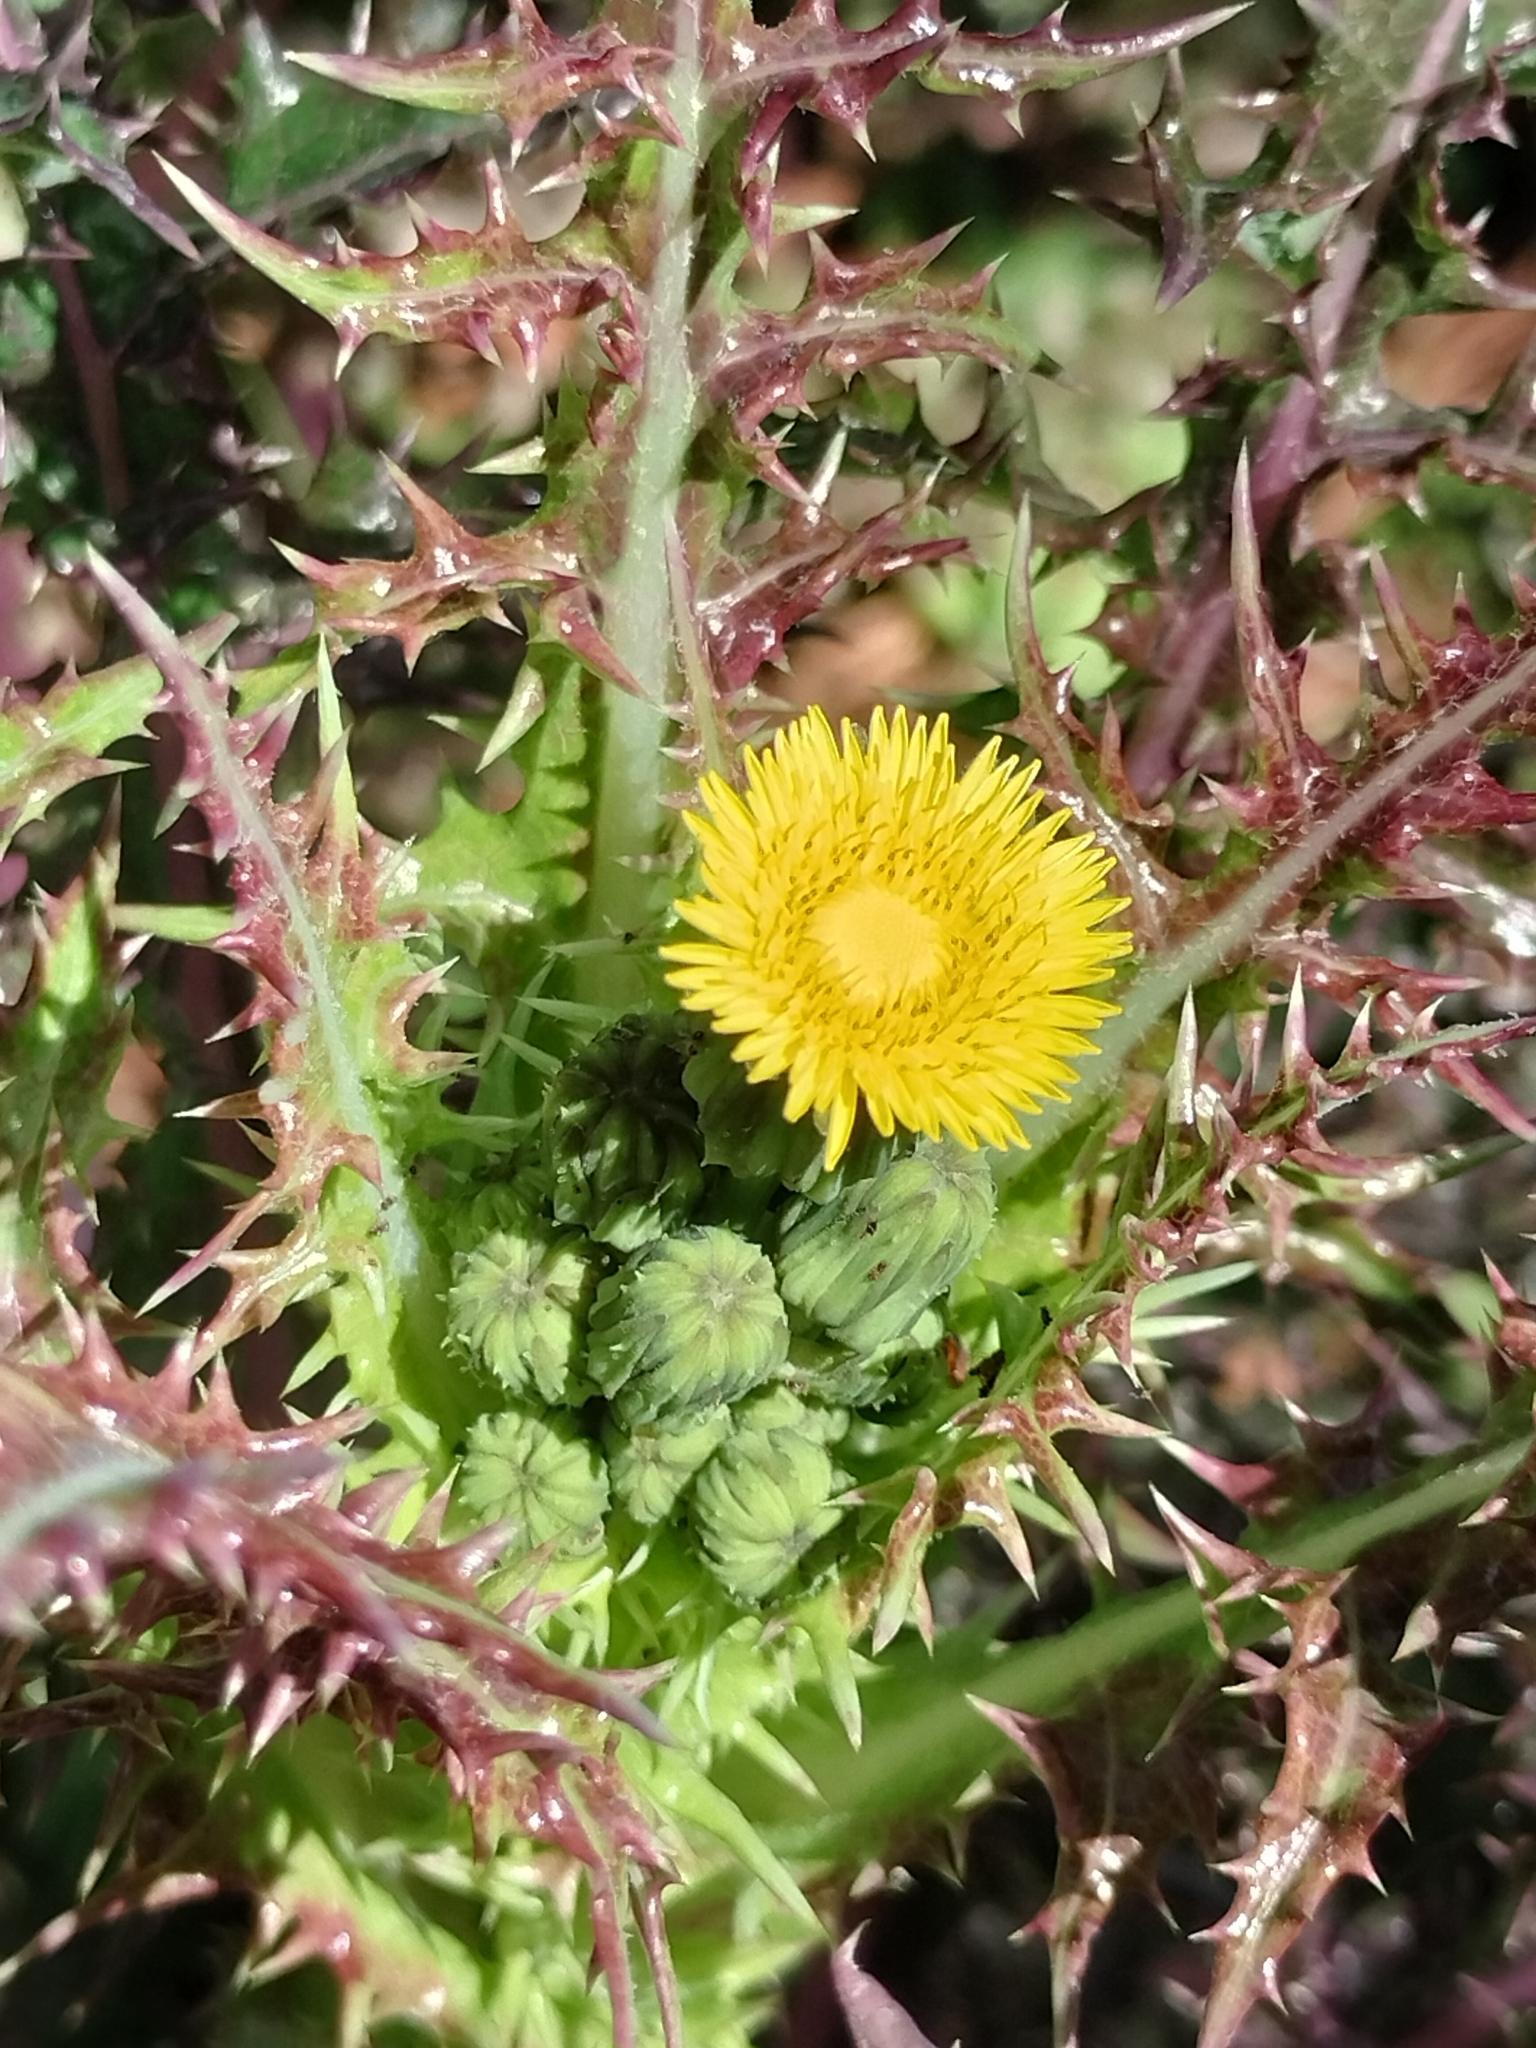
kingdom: Plantae
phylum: Tracheophyta
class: Magnoliopsida
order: Asterales
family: Asteraceae
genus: Sonchus
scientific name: Sonchus asper
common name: Prickly sow-thistle
